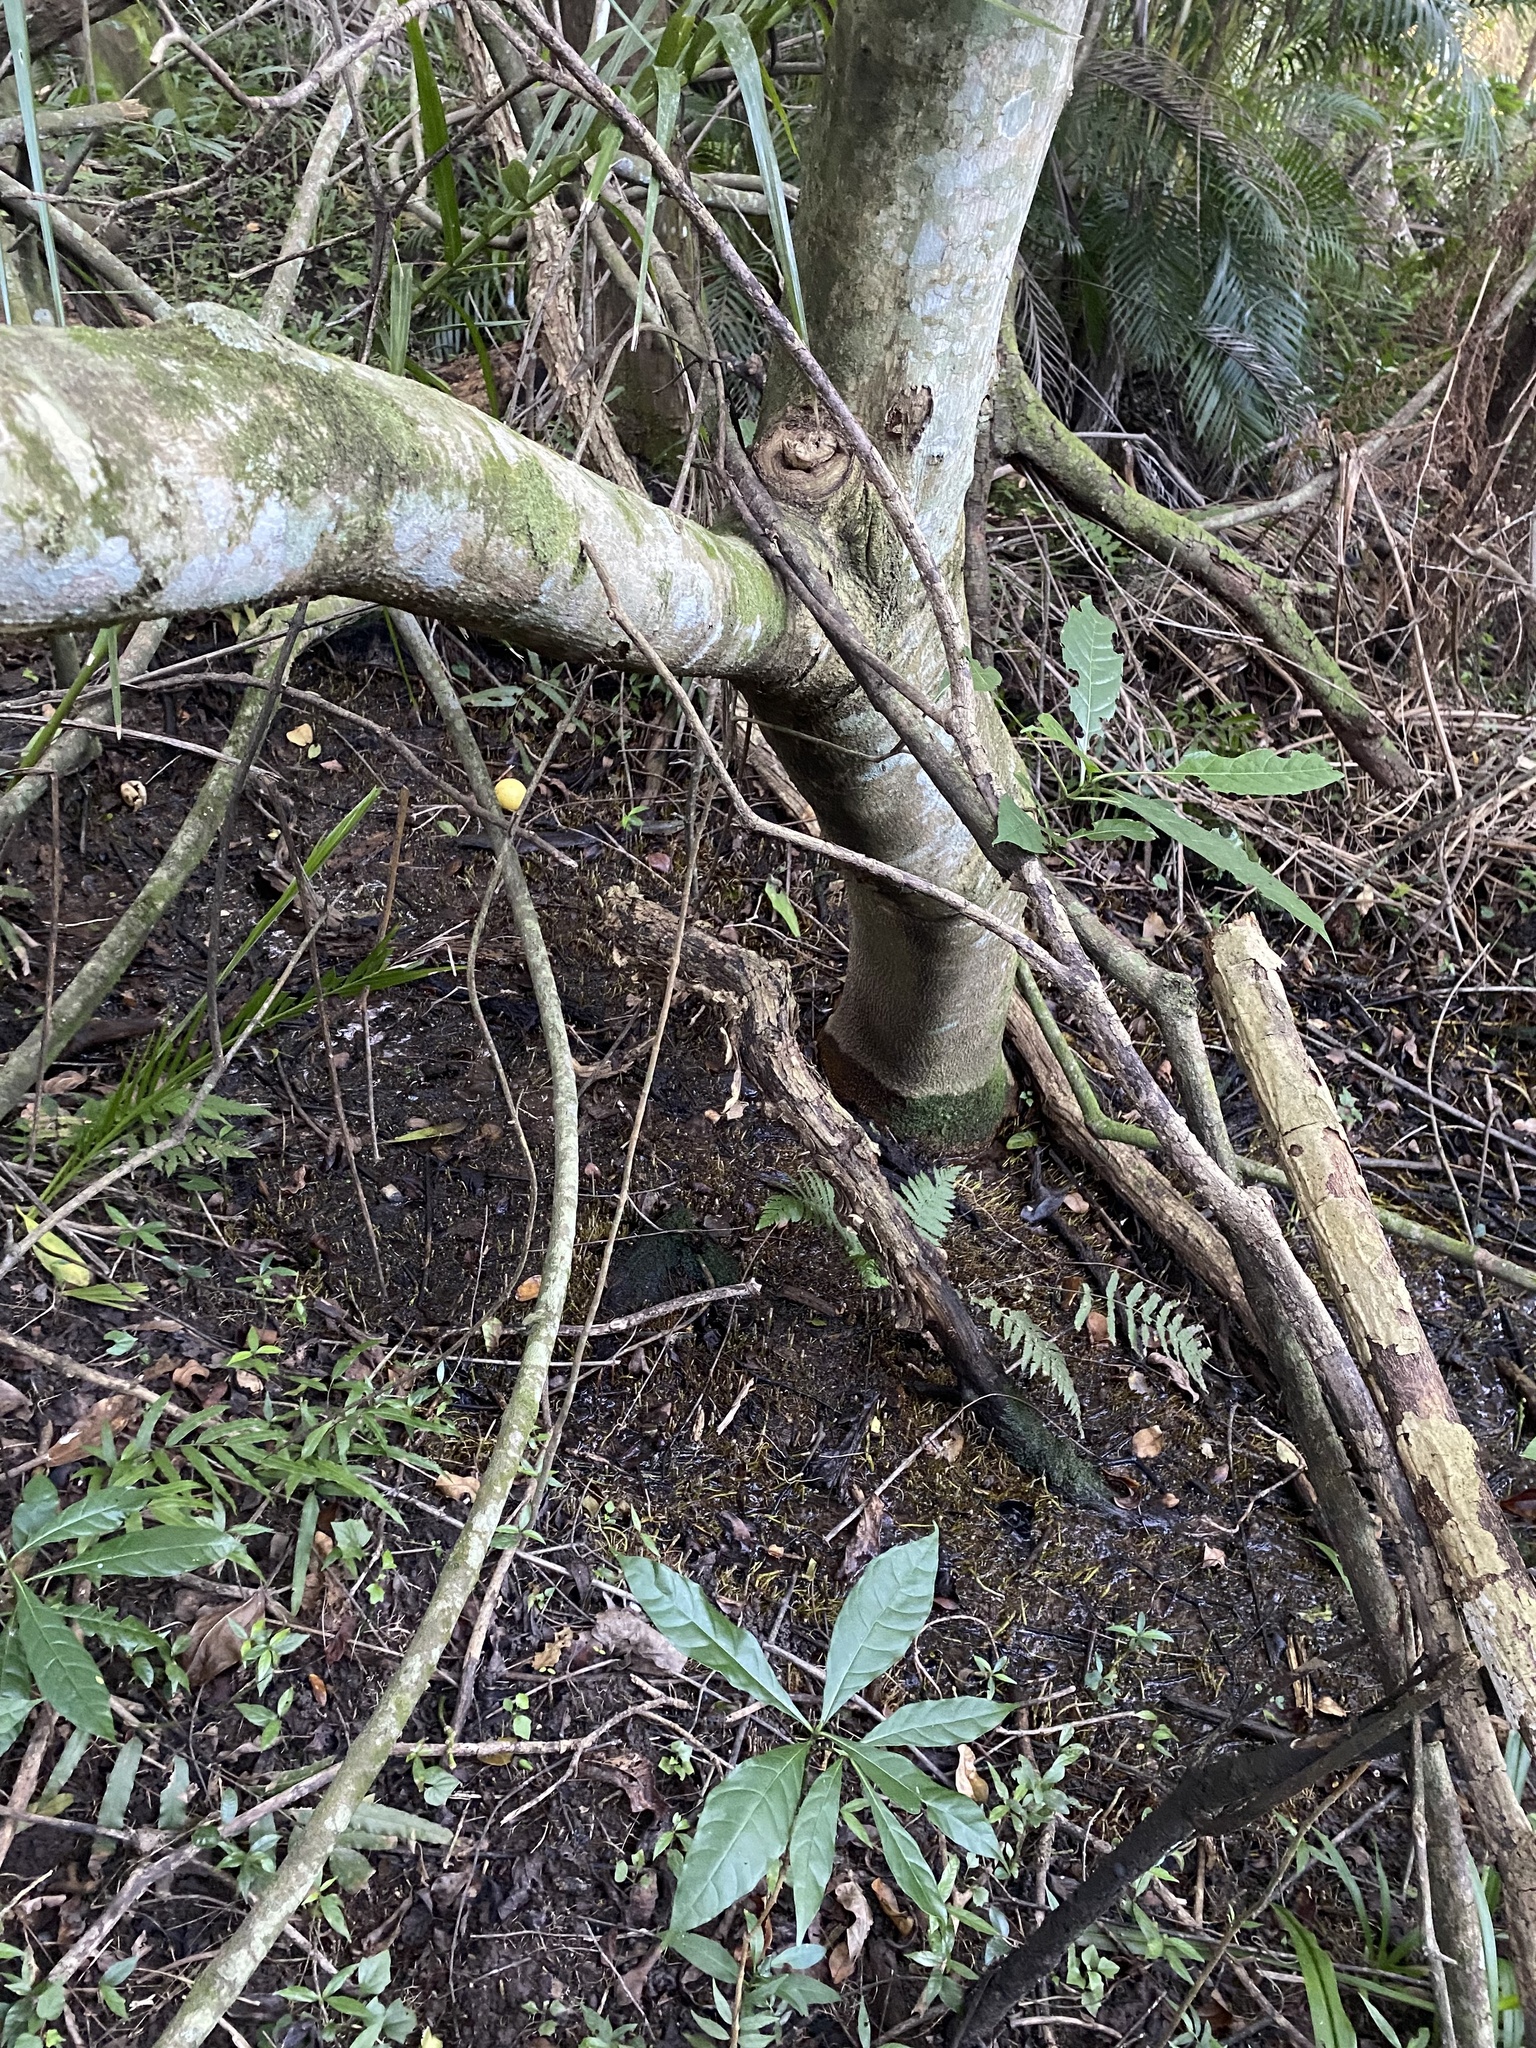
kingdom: Plantae
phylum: Tracheophyta
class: Magnoliopsida
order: Gentianales
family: Apocynaceae
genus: Voacanga
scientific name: Voacanga thouarsii
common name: Wild frangipani
